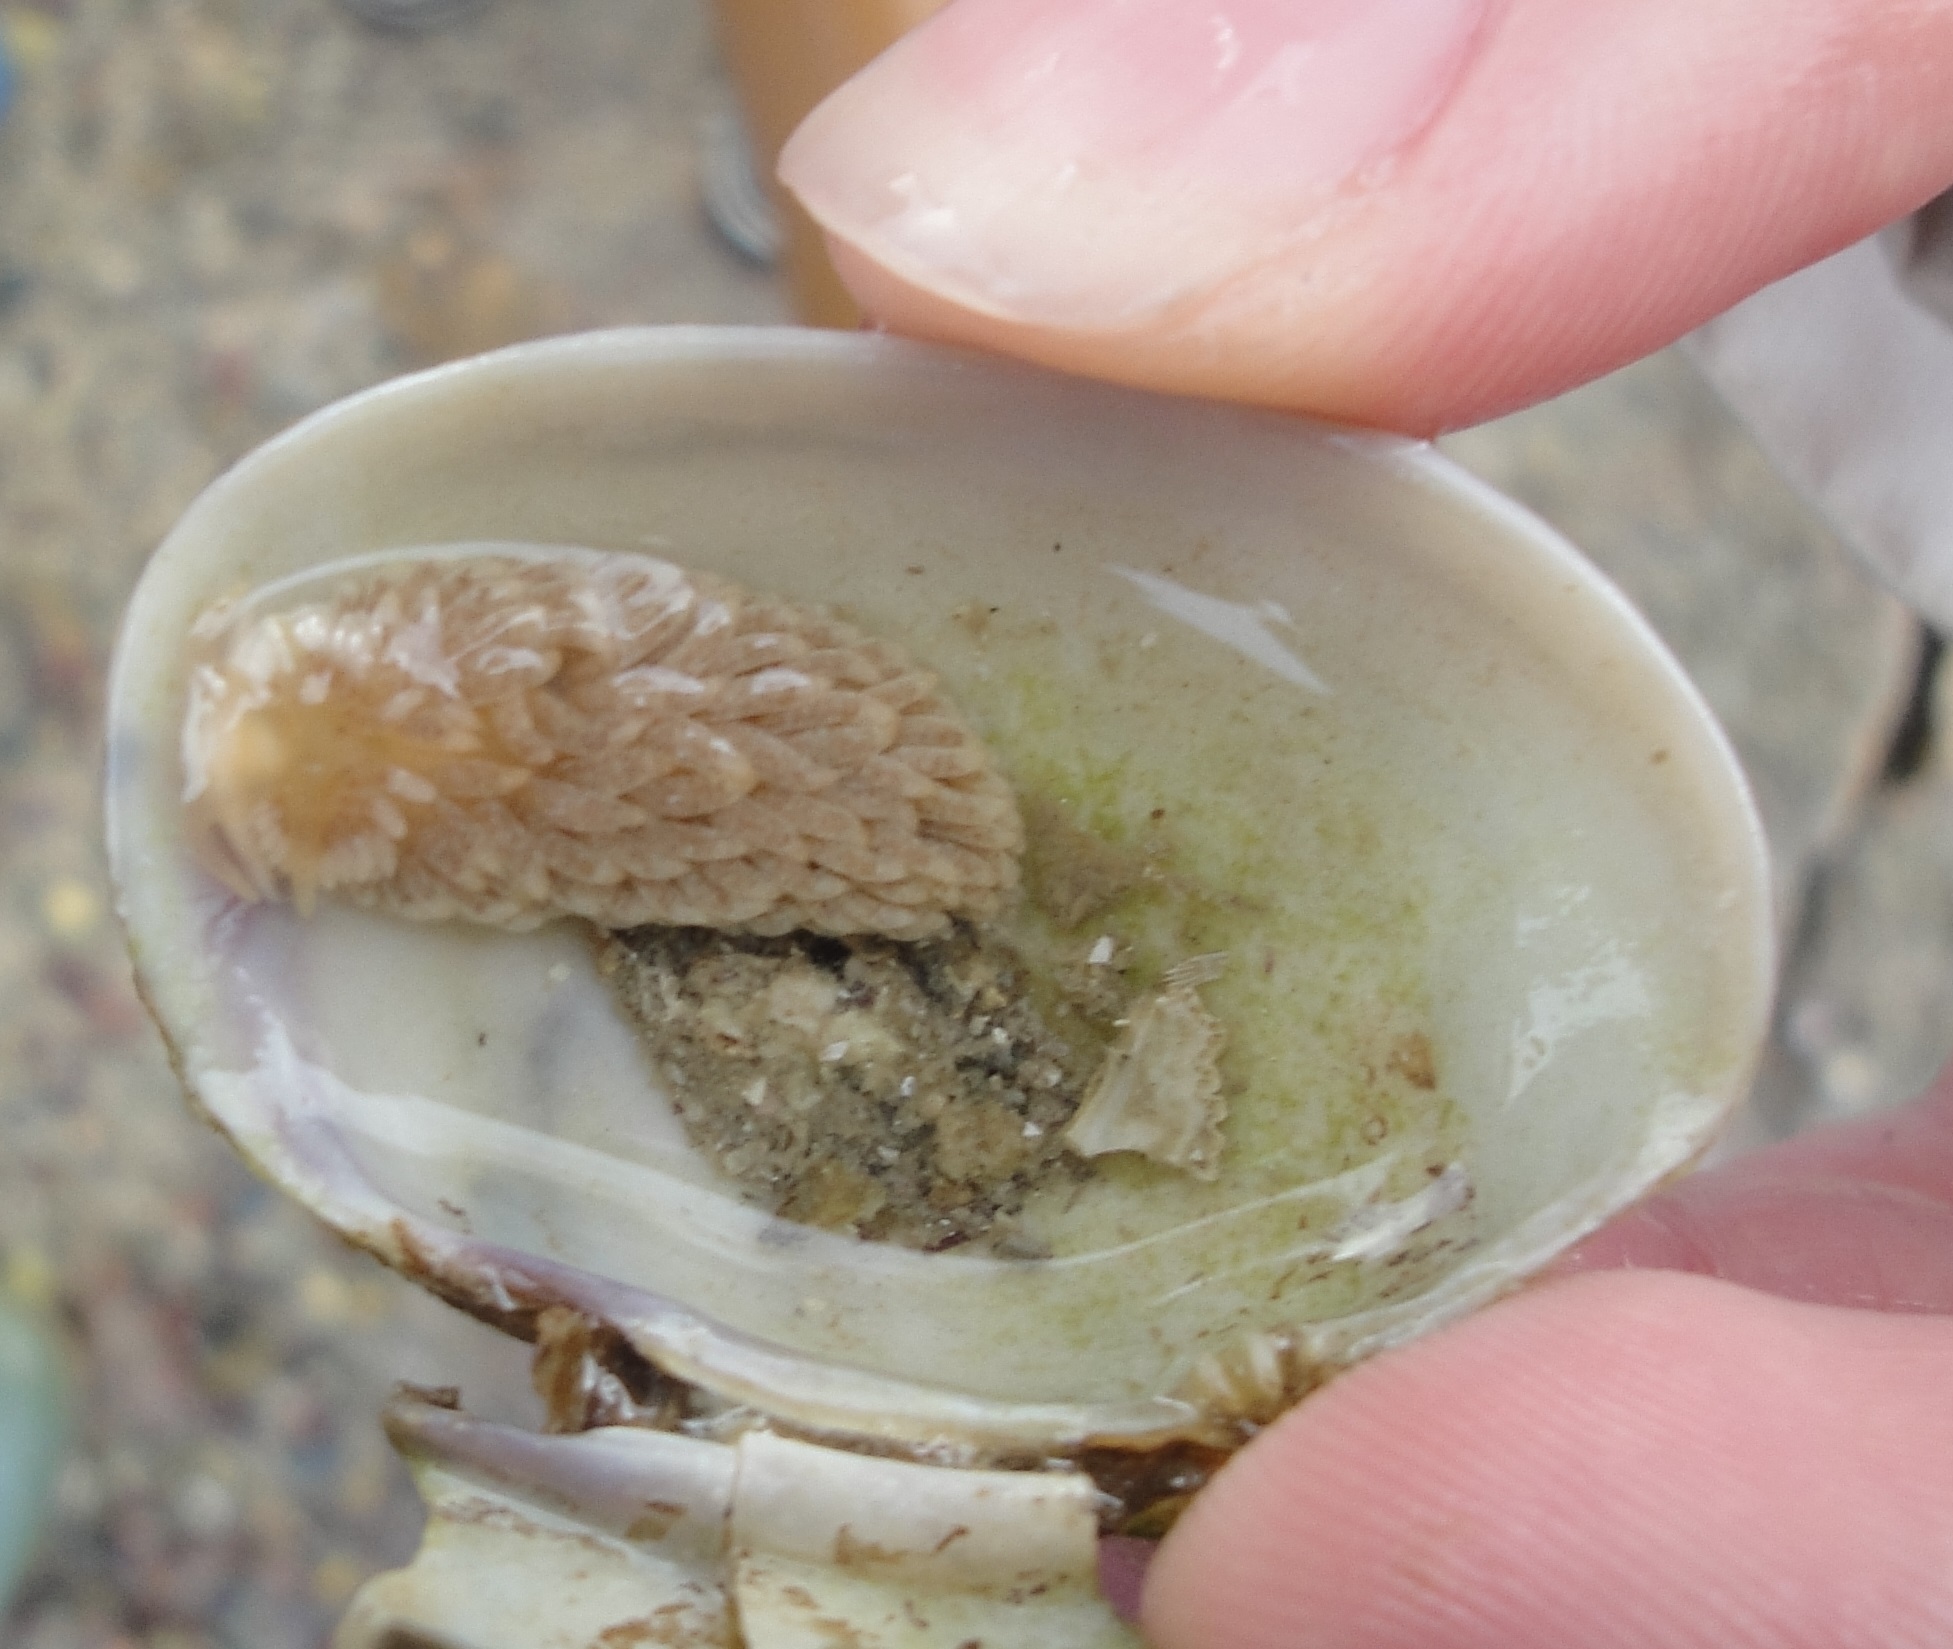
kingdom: Animalia
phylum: Mollusca
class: Gastropoda
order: Nudibranchia
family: Aeolidiidae
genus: Aeolidiella
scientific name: Aeolidiella alderi
